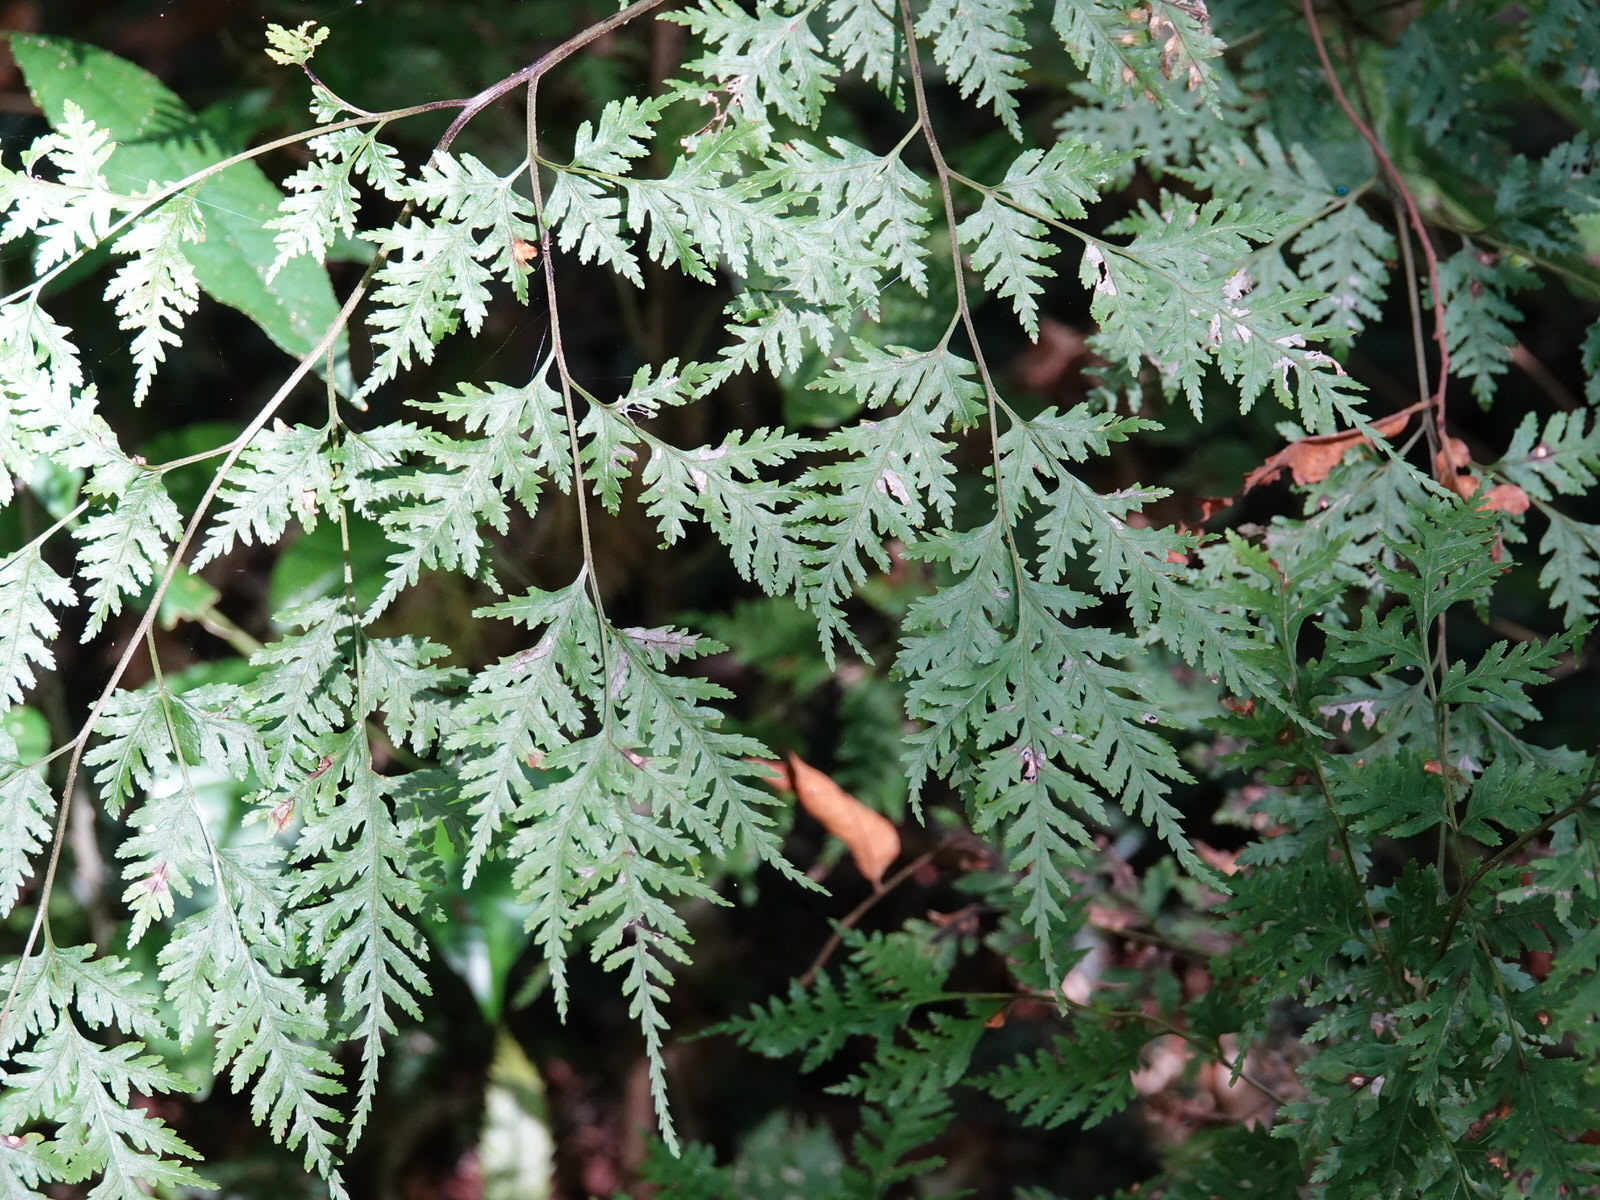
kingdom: Plantae
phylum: Tracheophyta
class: Polypodiopsida
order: Polypodiales
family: Pteridaceae
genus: Pteris
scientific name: Pteris macilenta
